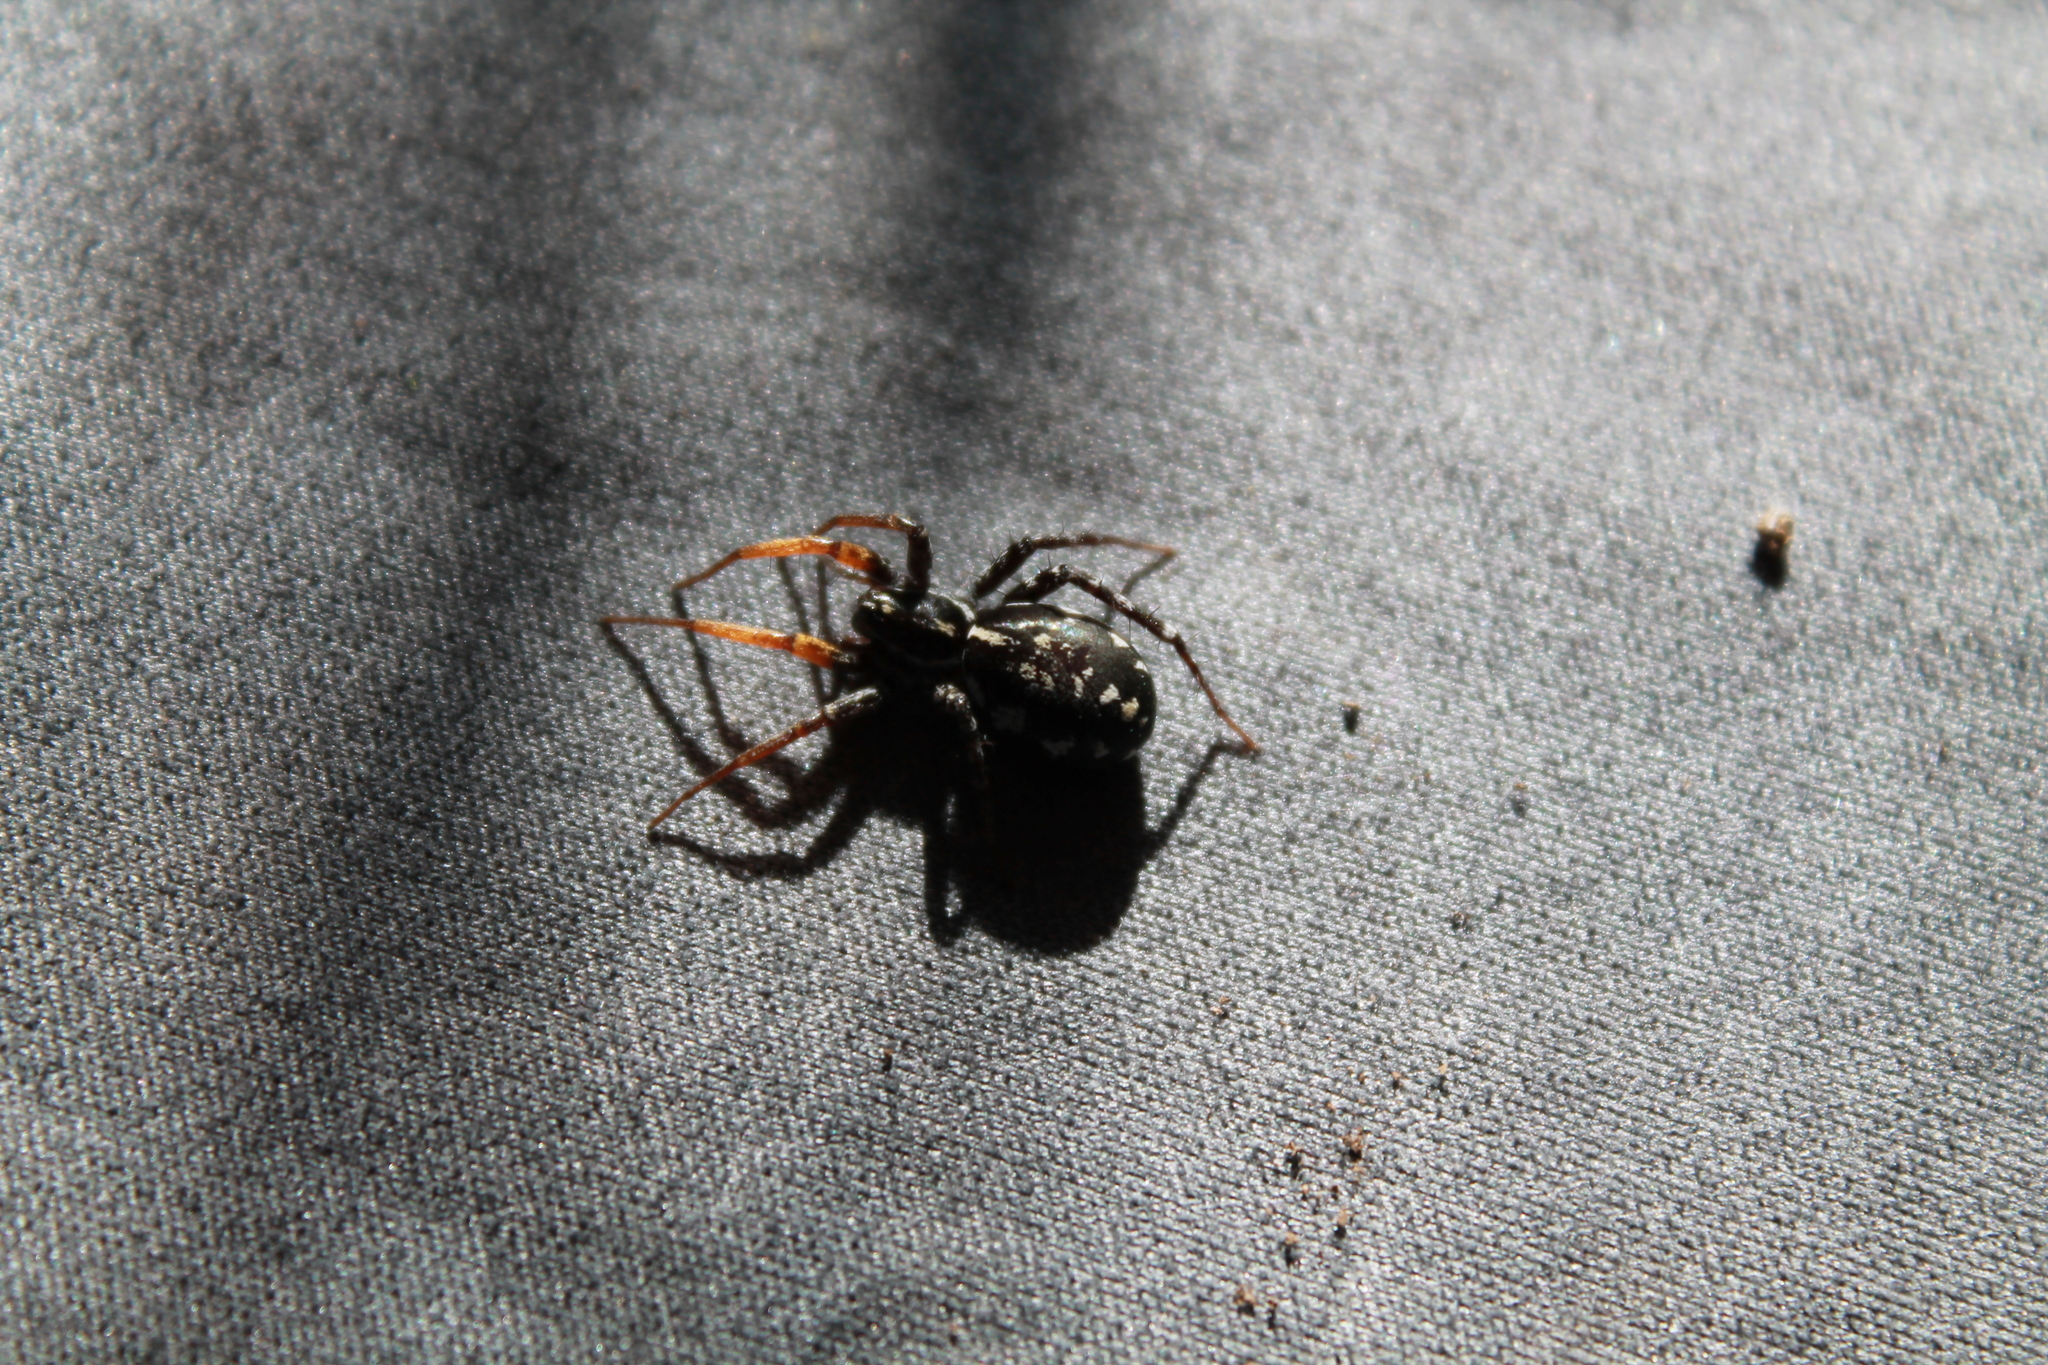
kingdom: Animalia
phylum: Arthropoda
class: Arachnida
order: Araneae
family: Corinnidae
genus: Nyssus
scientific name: Nyssus coloripes
